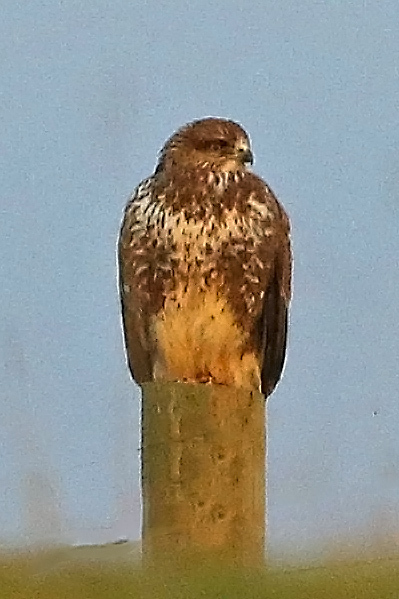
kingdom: Animalia
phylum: Chordata
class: Aves
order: Accipitriformes
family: Accipitridae
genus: Buteo
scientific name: Buteo buteo
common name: Common buzzard
